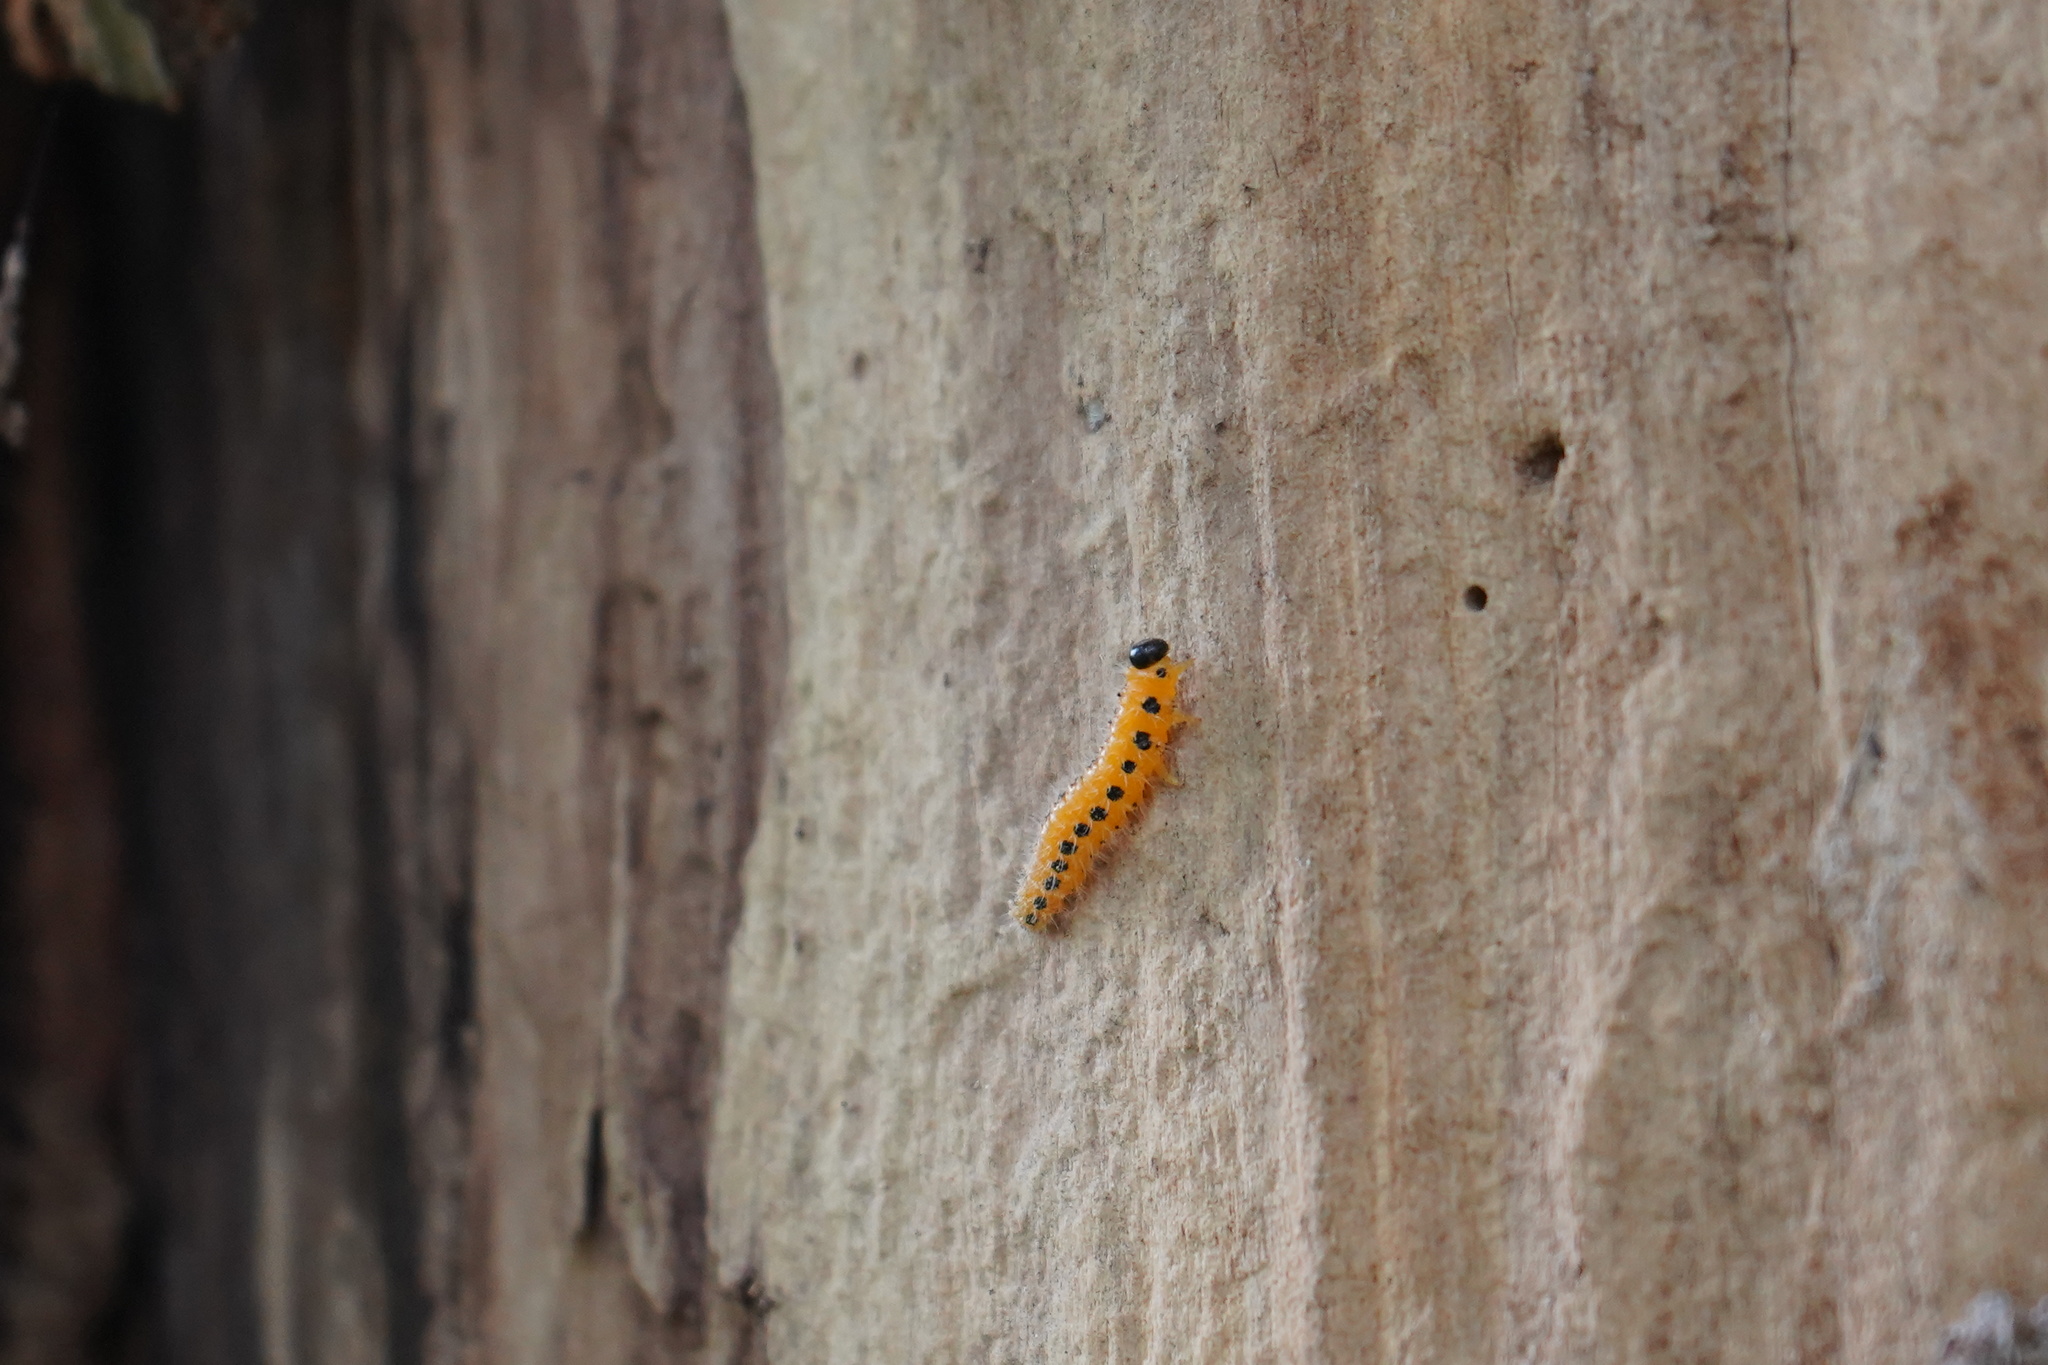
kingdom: Animalia
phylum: Arthropoda
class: Insecta
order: Hymenoptera
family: Tenthredinidae
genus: Cladius
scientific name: Cladius grandis
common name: Common sawfly
